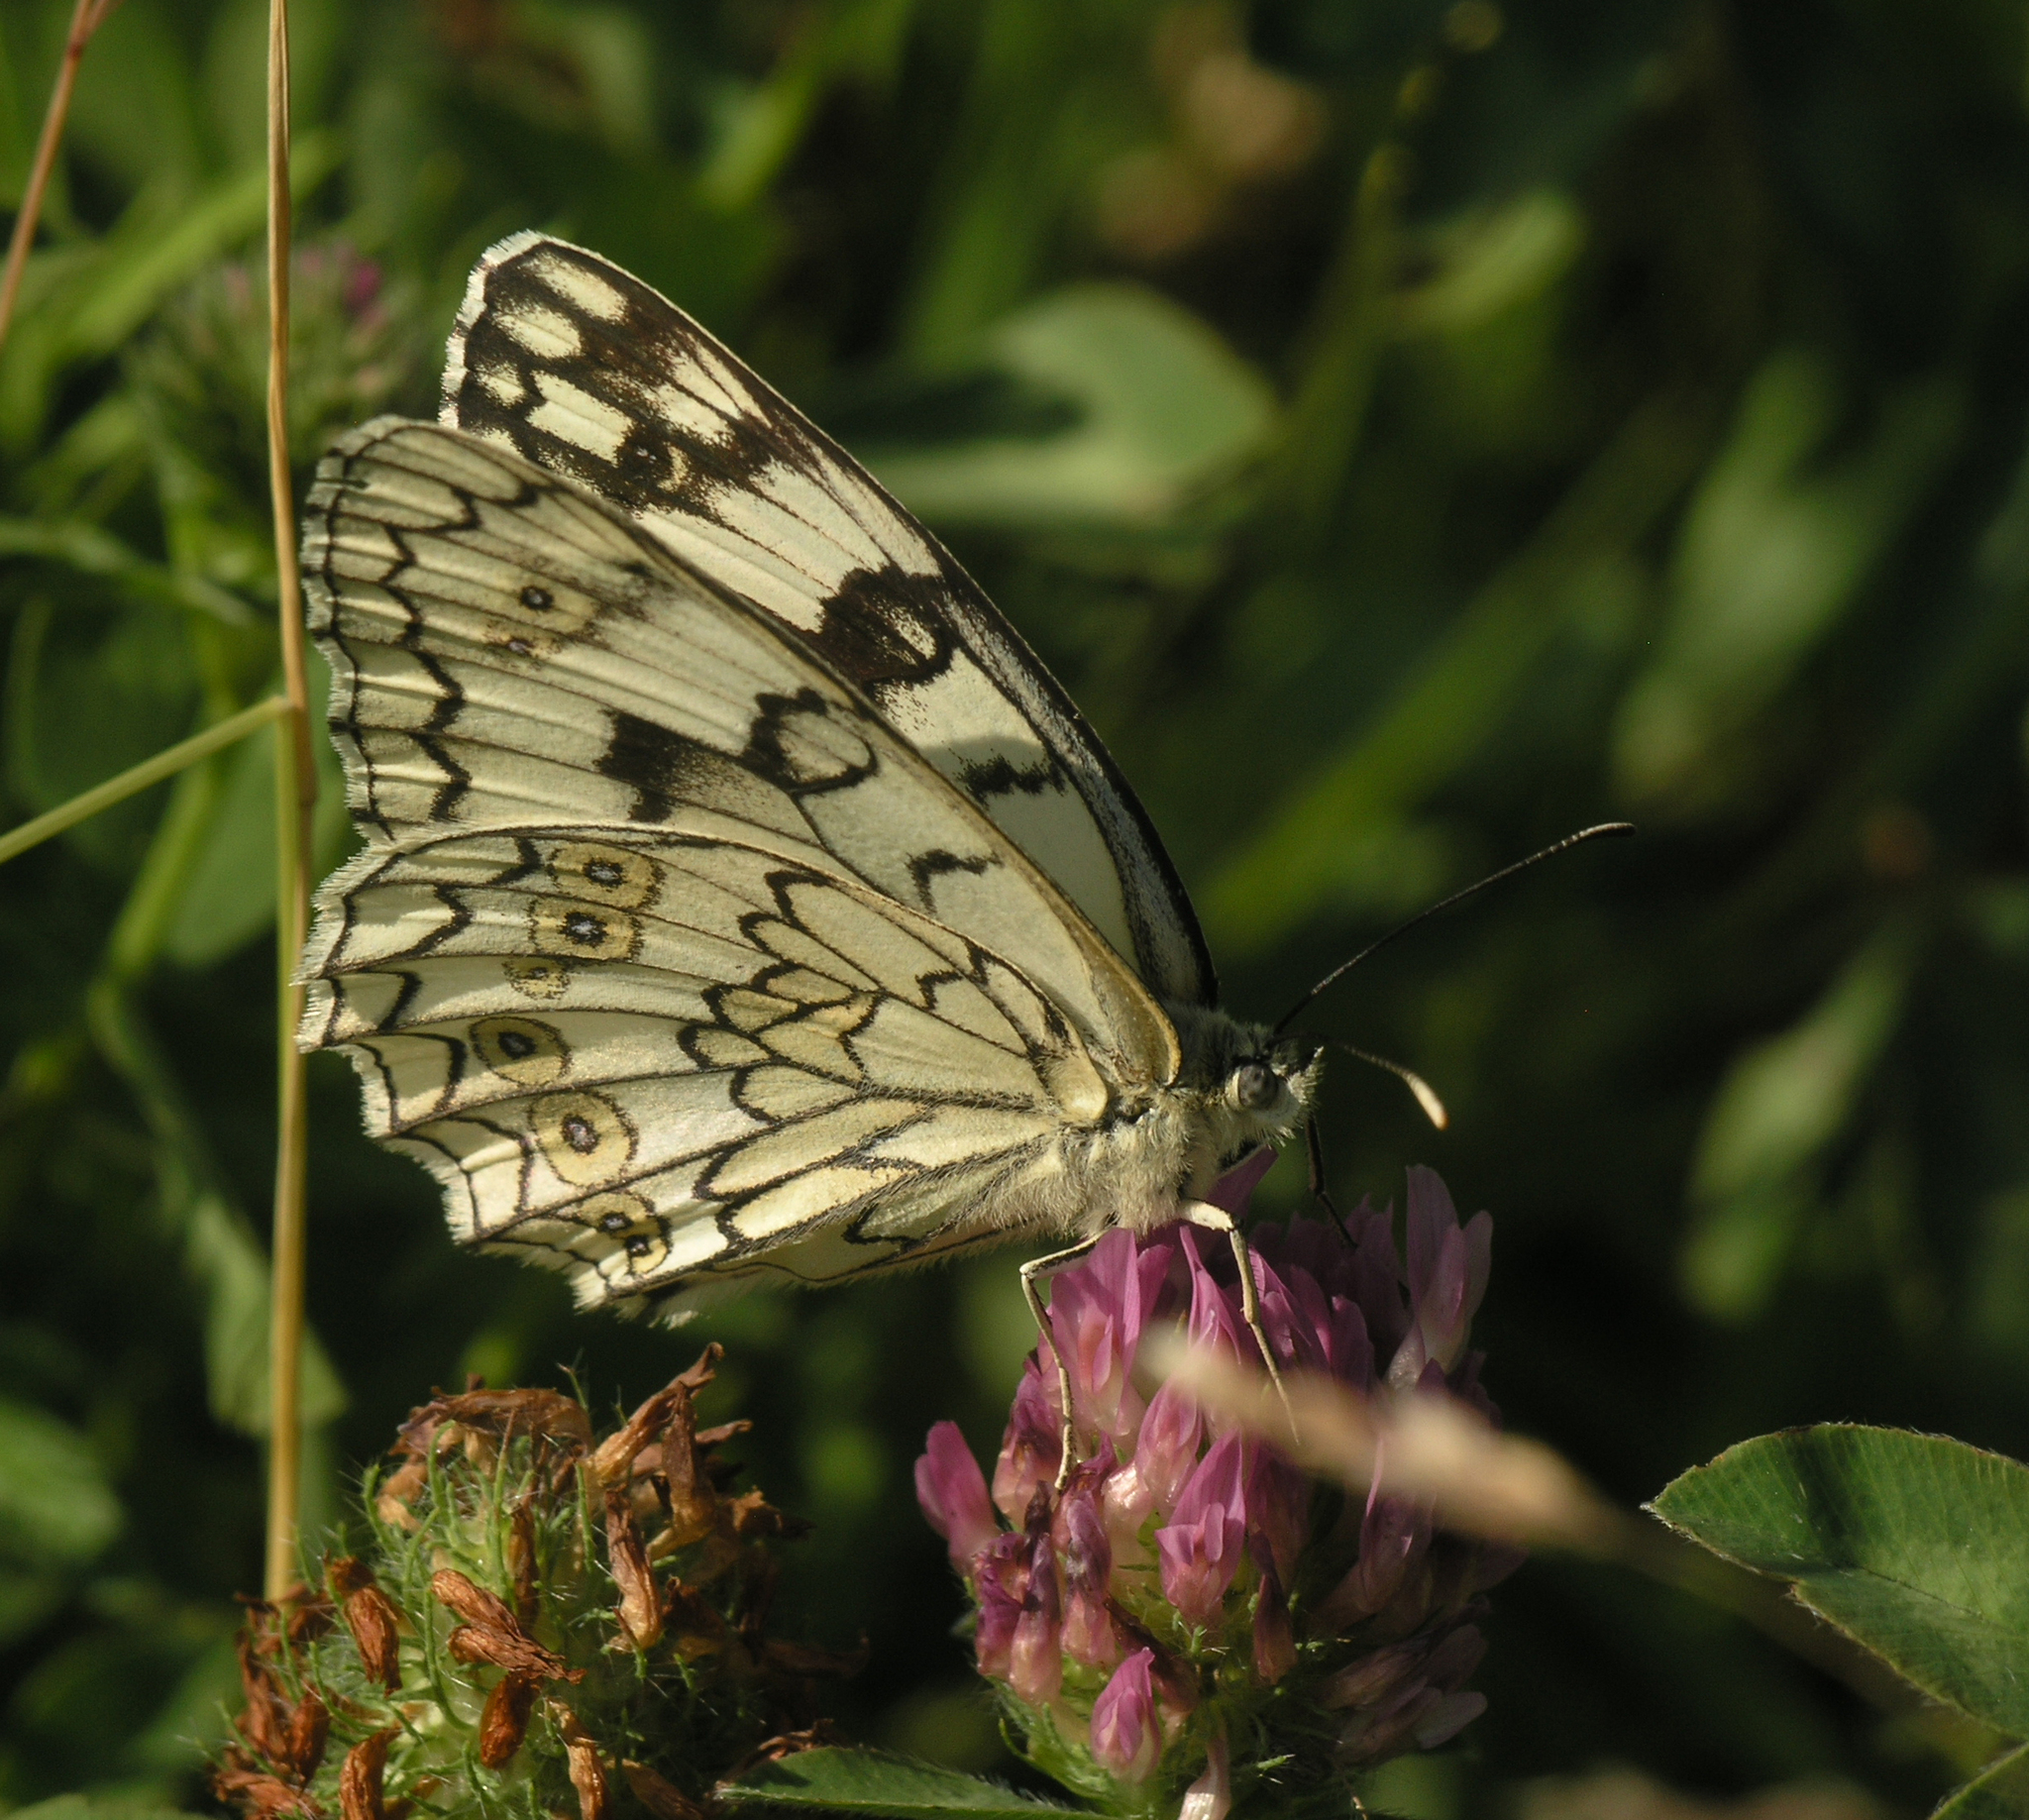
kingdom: Animalia
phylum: Arthropoda
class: Insecta
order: Lepidoptera
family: Nymphalidae
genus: Melanargia
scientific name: Melanargia japygia
